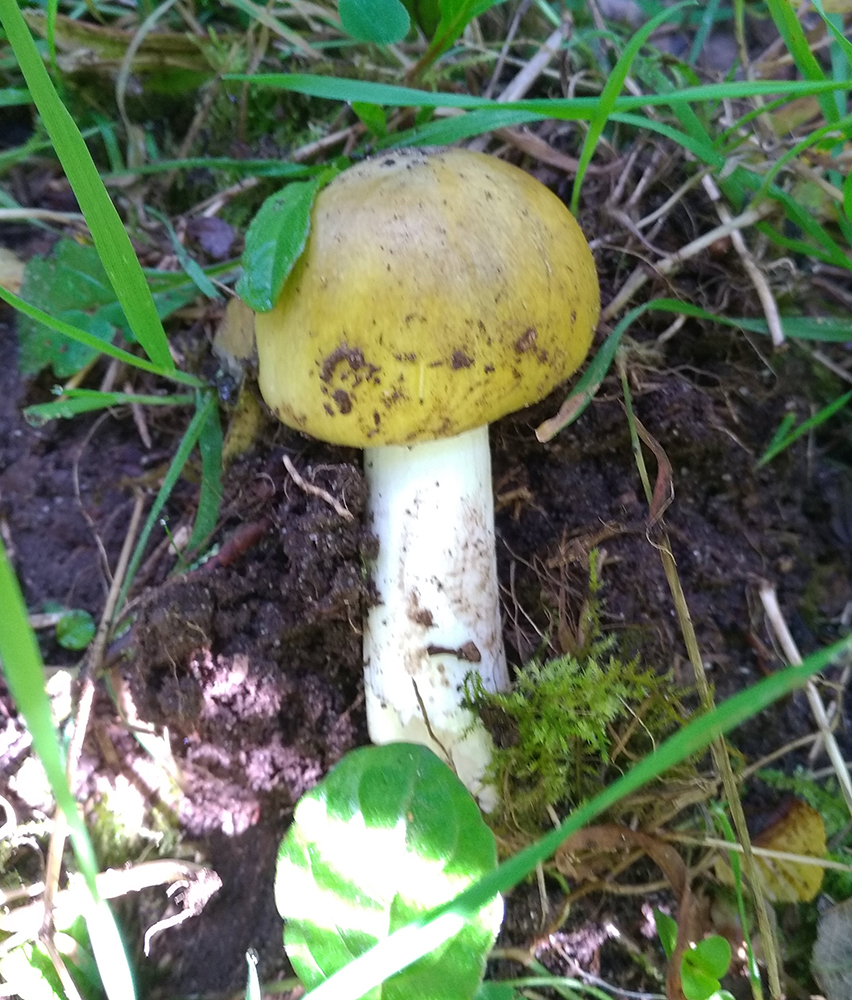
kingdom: Fungi
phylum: Basidiomycota
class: Agaricomycetes
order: Agaricales
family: Amanitaceae
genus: Amanita
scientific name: Amanita phalloides
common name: Death cap
